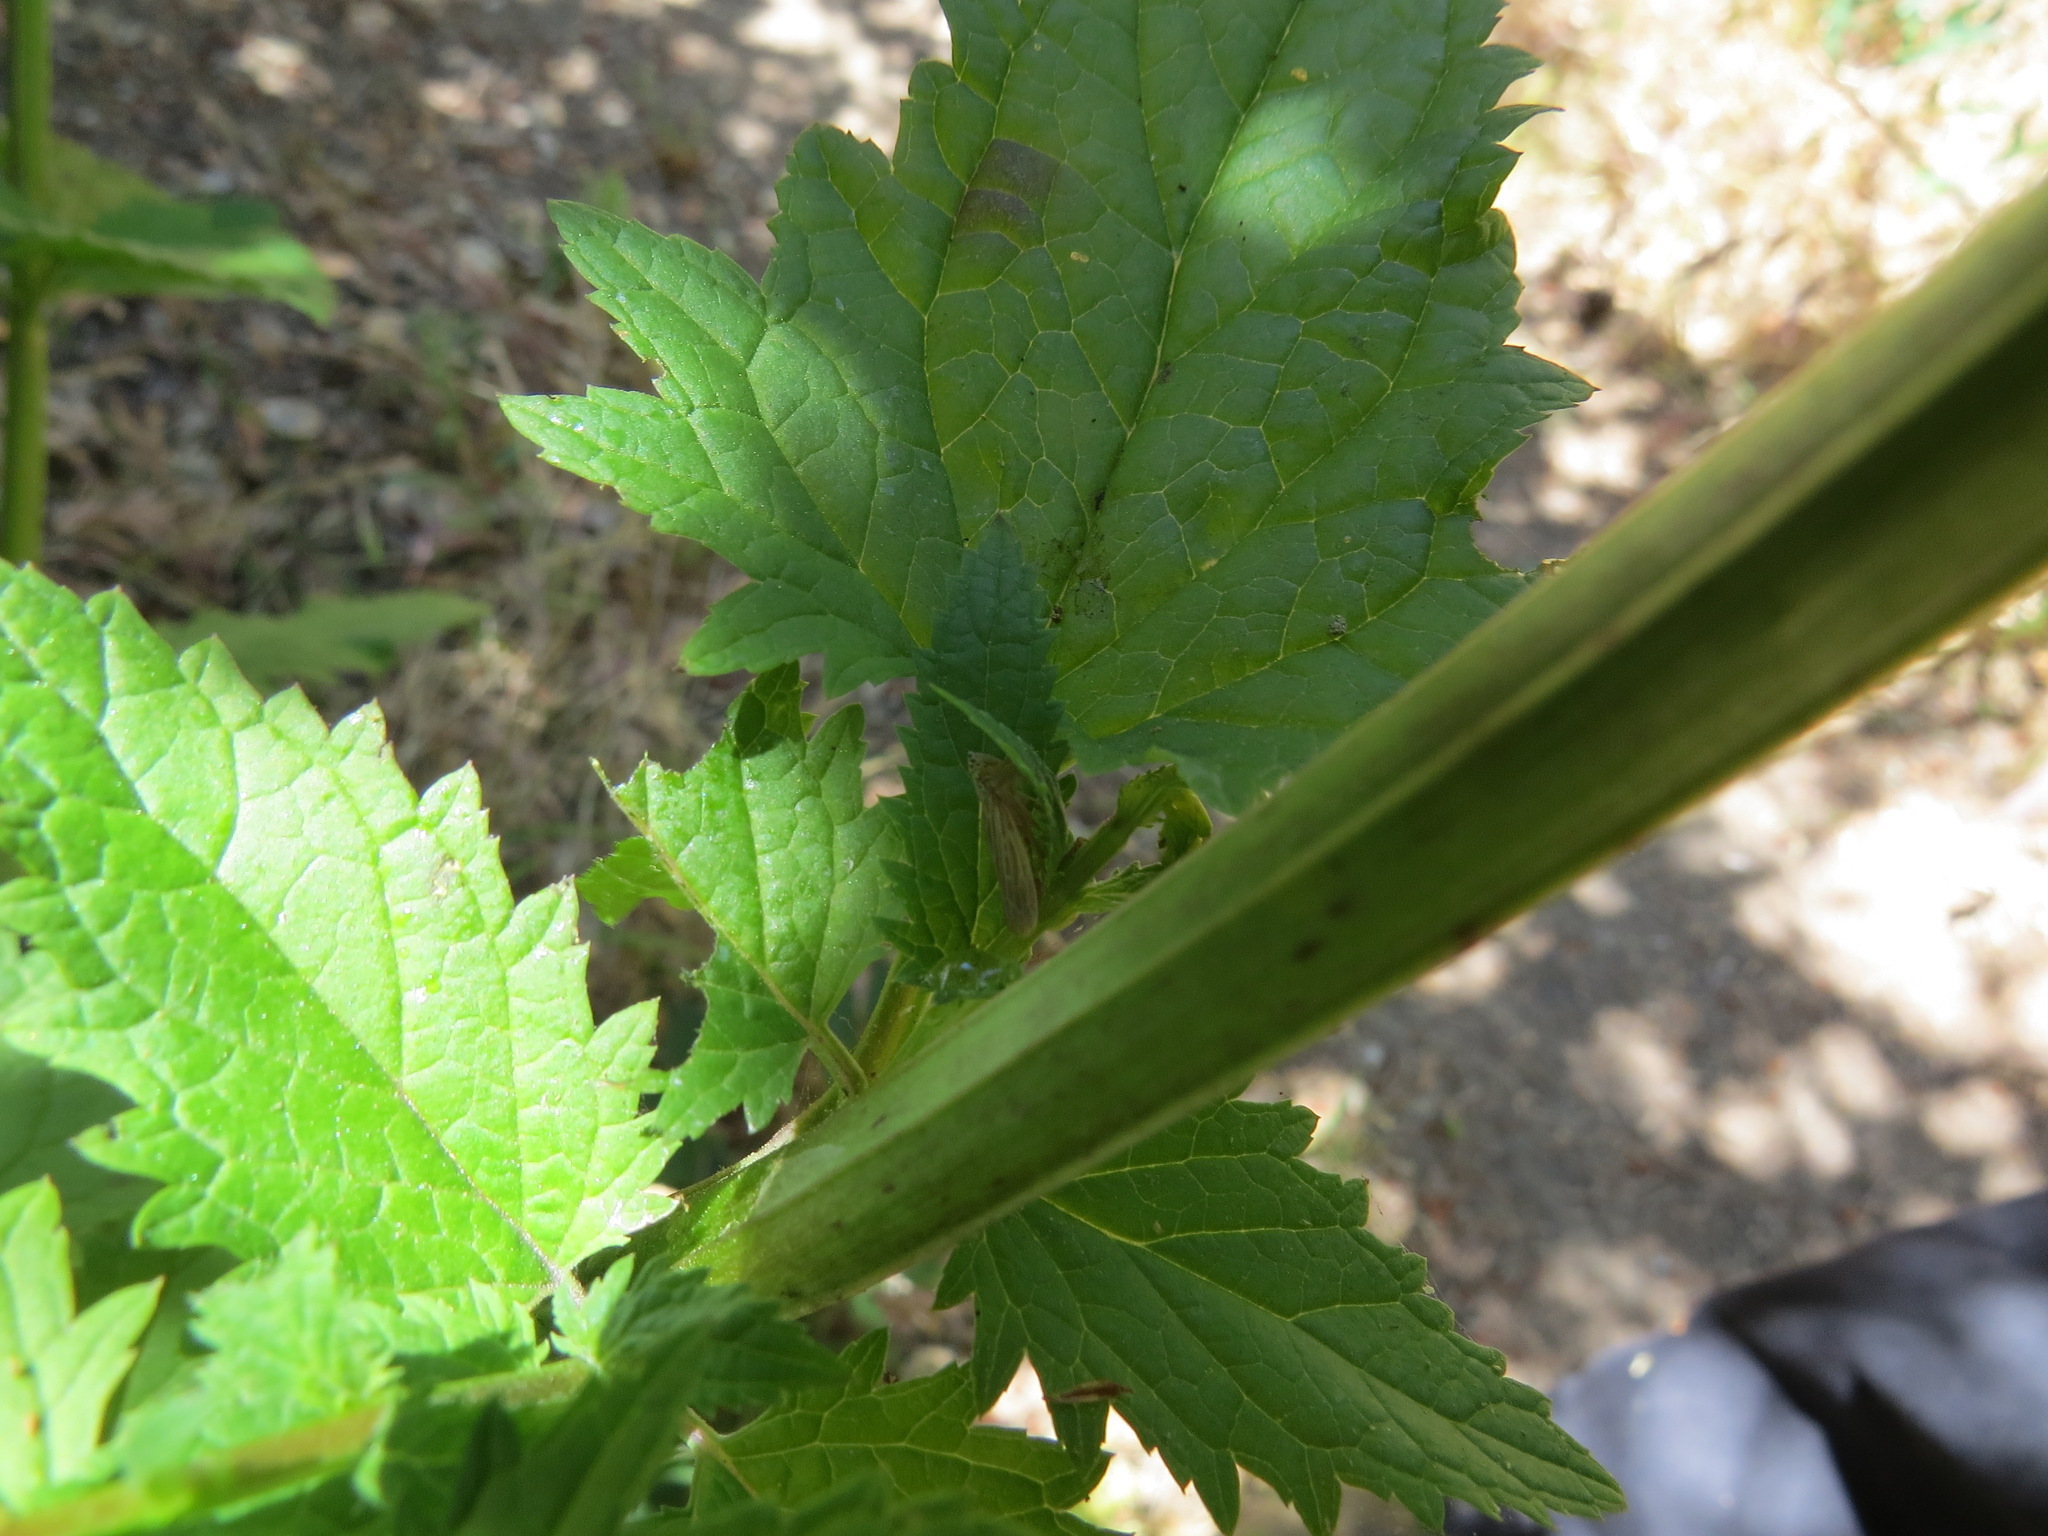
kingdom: Animalia
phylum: Arthropoda
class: Insecta
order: Hemiptera
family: Cicadellidae
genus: Pagaronia
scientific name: Pagaronia triunata
